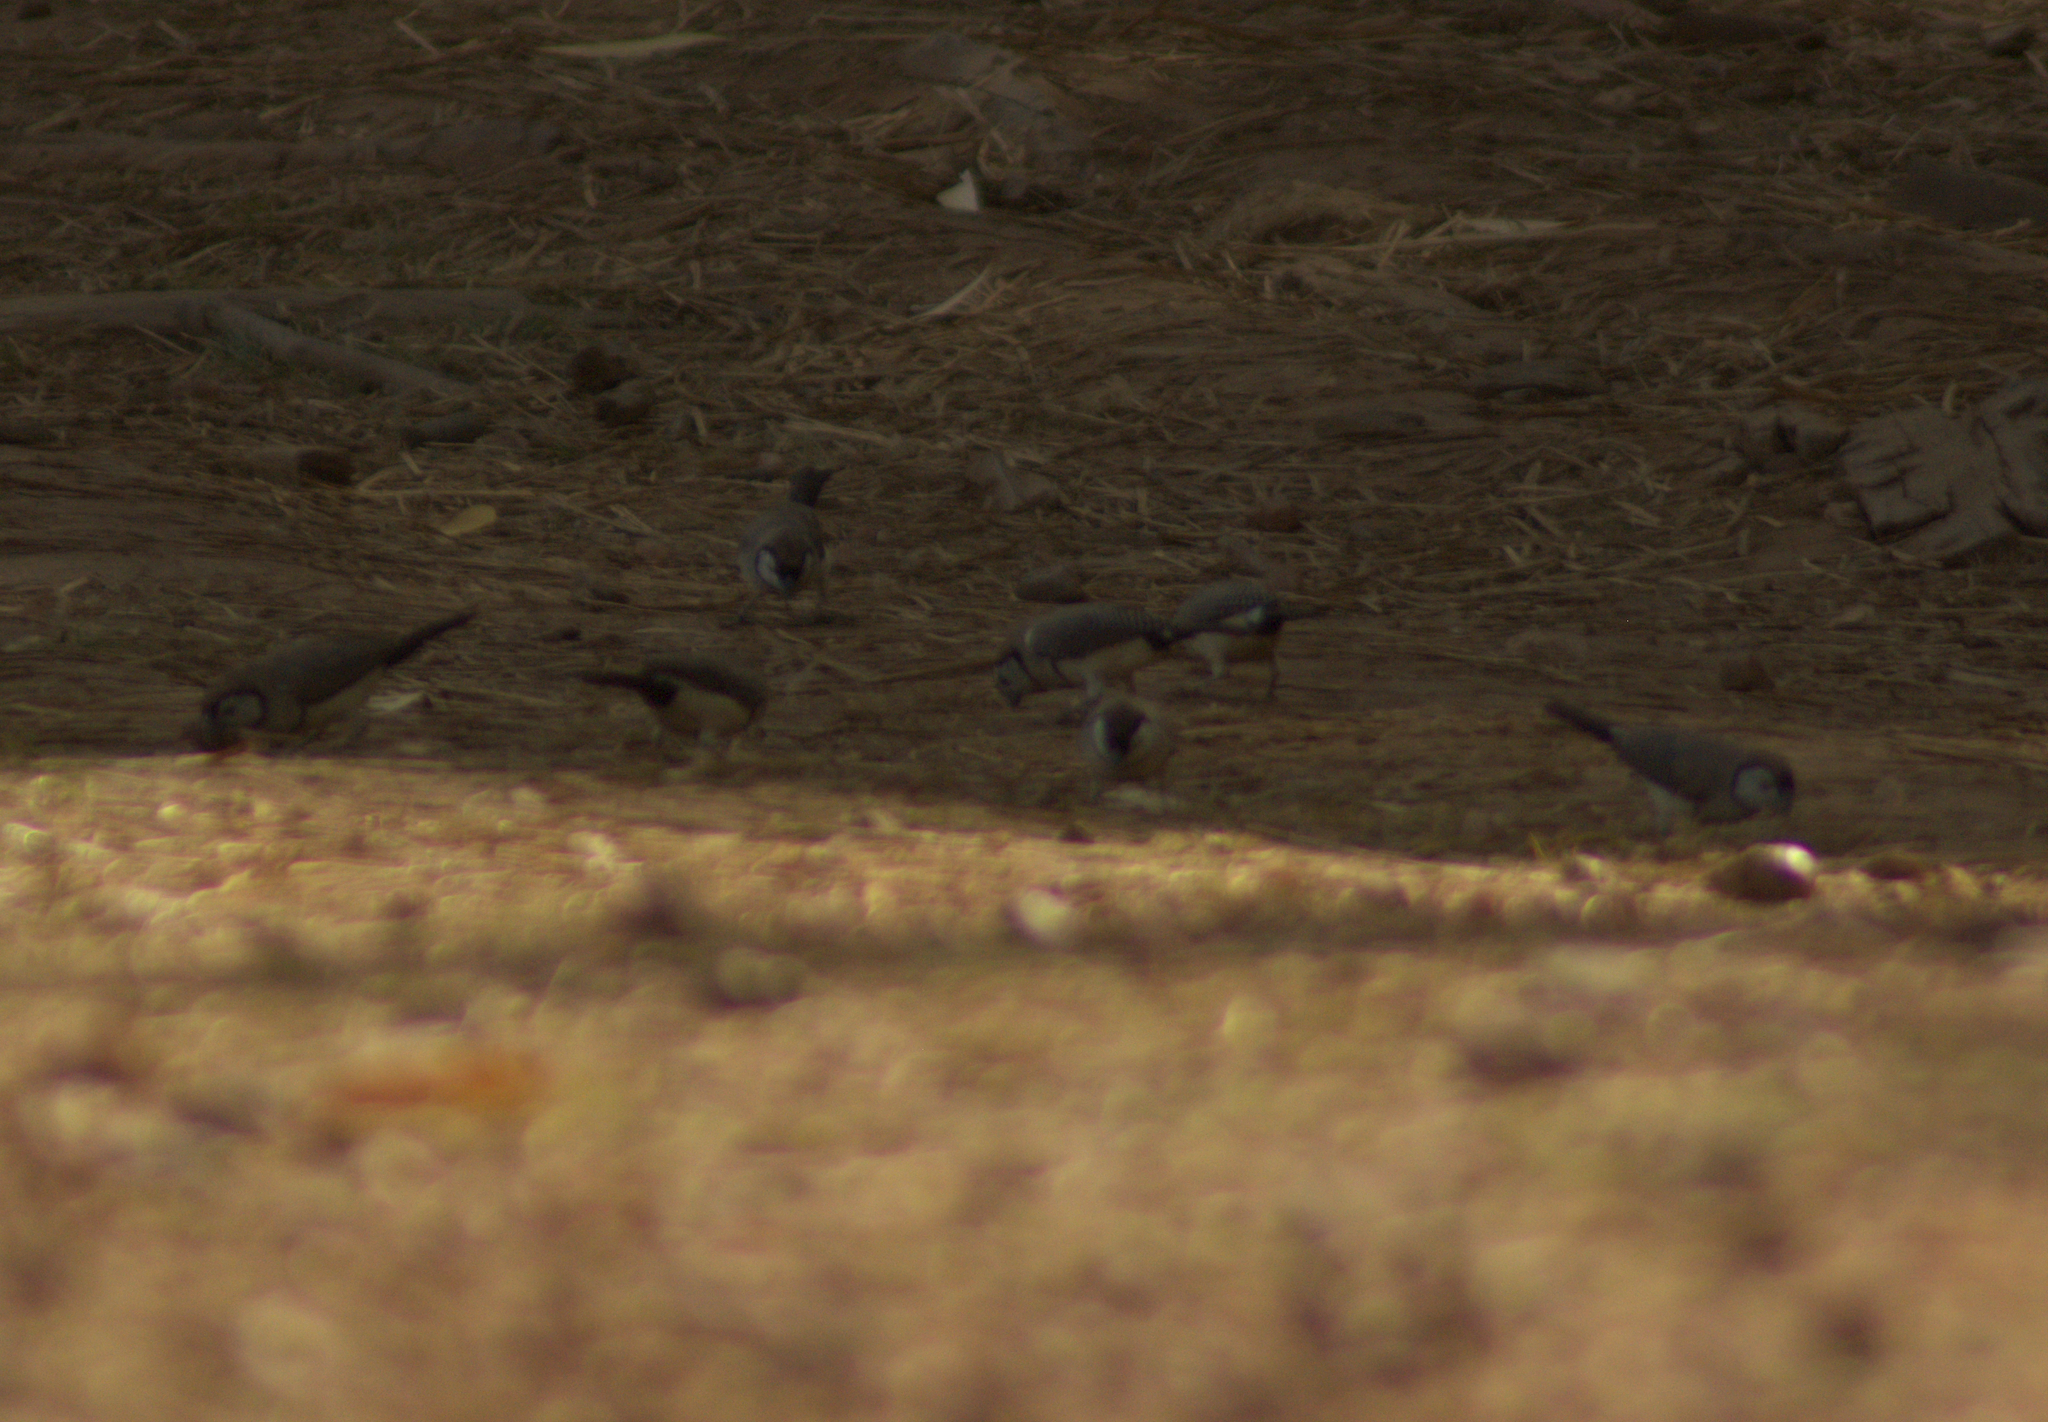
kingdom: Animalia
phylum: Chordata
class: Aves
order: Passeriformes
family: Estrildidae
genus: Taeniopygia
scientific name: Taeniopygia bichenovii
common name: Double-barred finch
